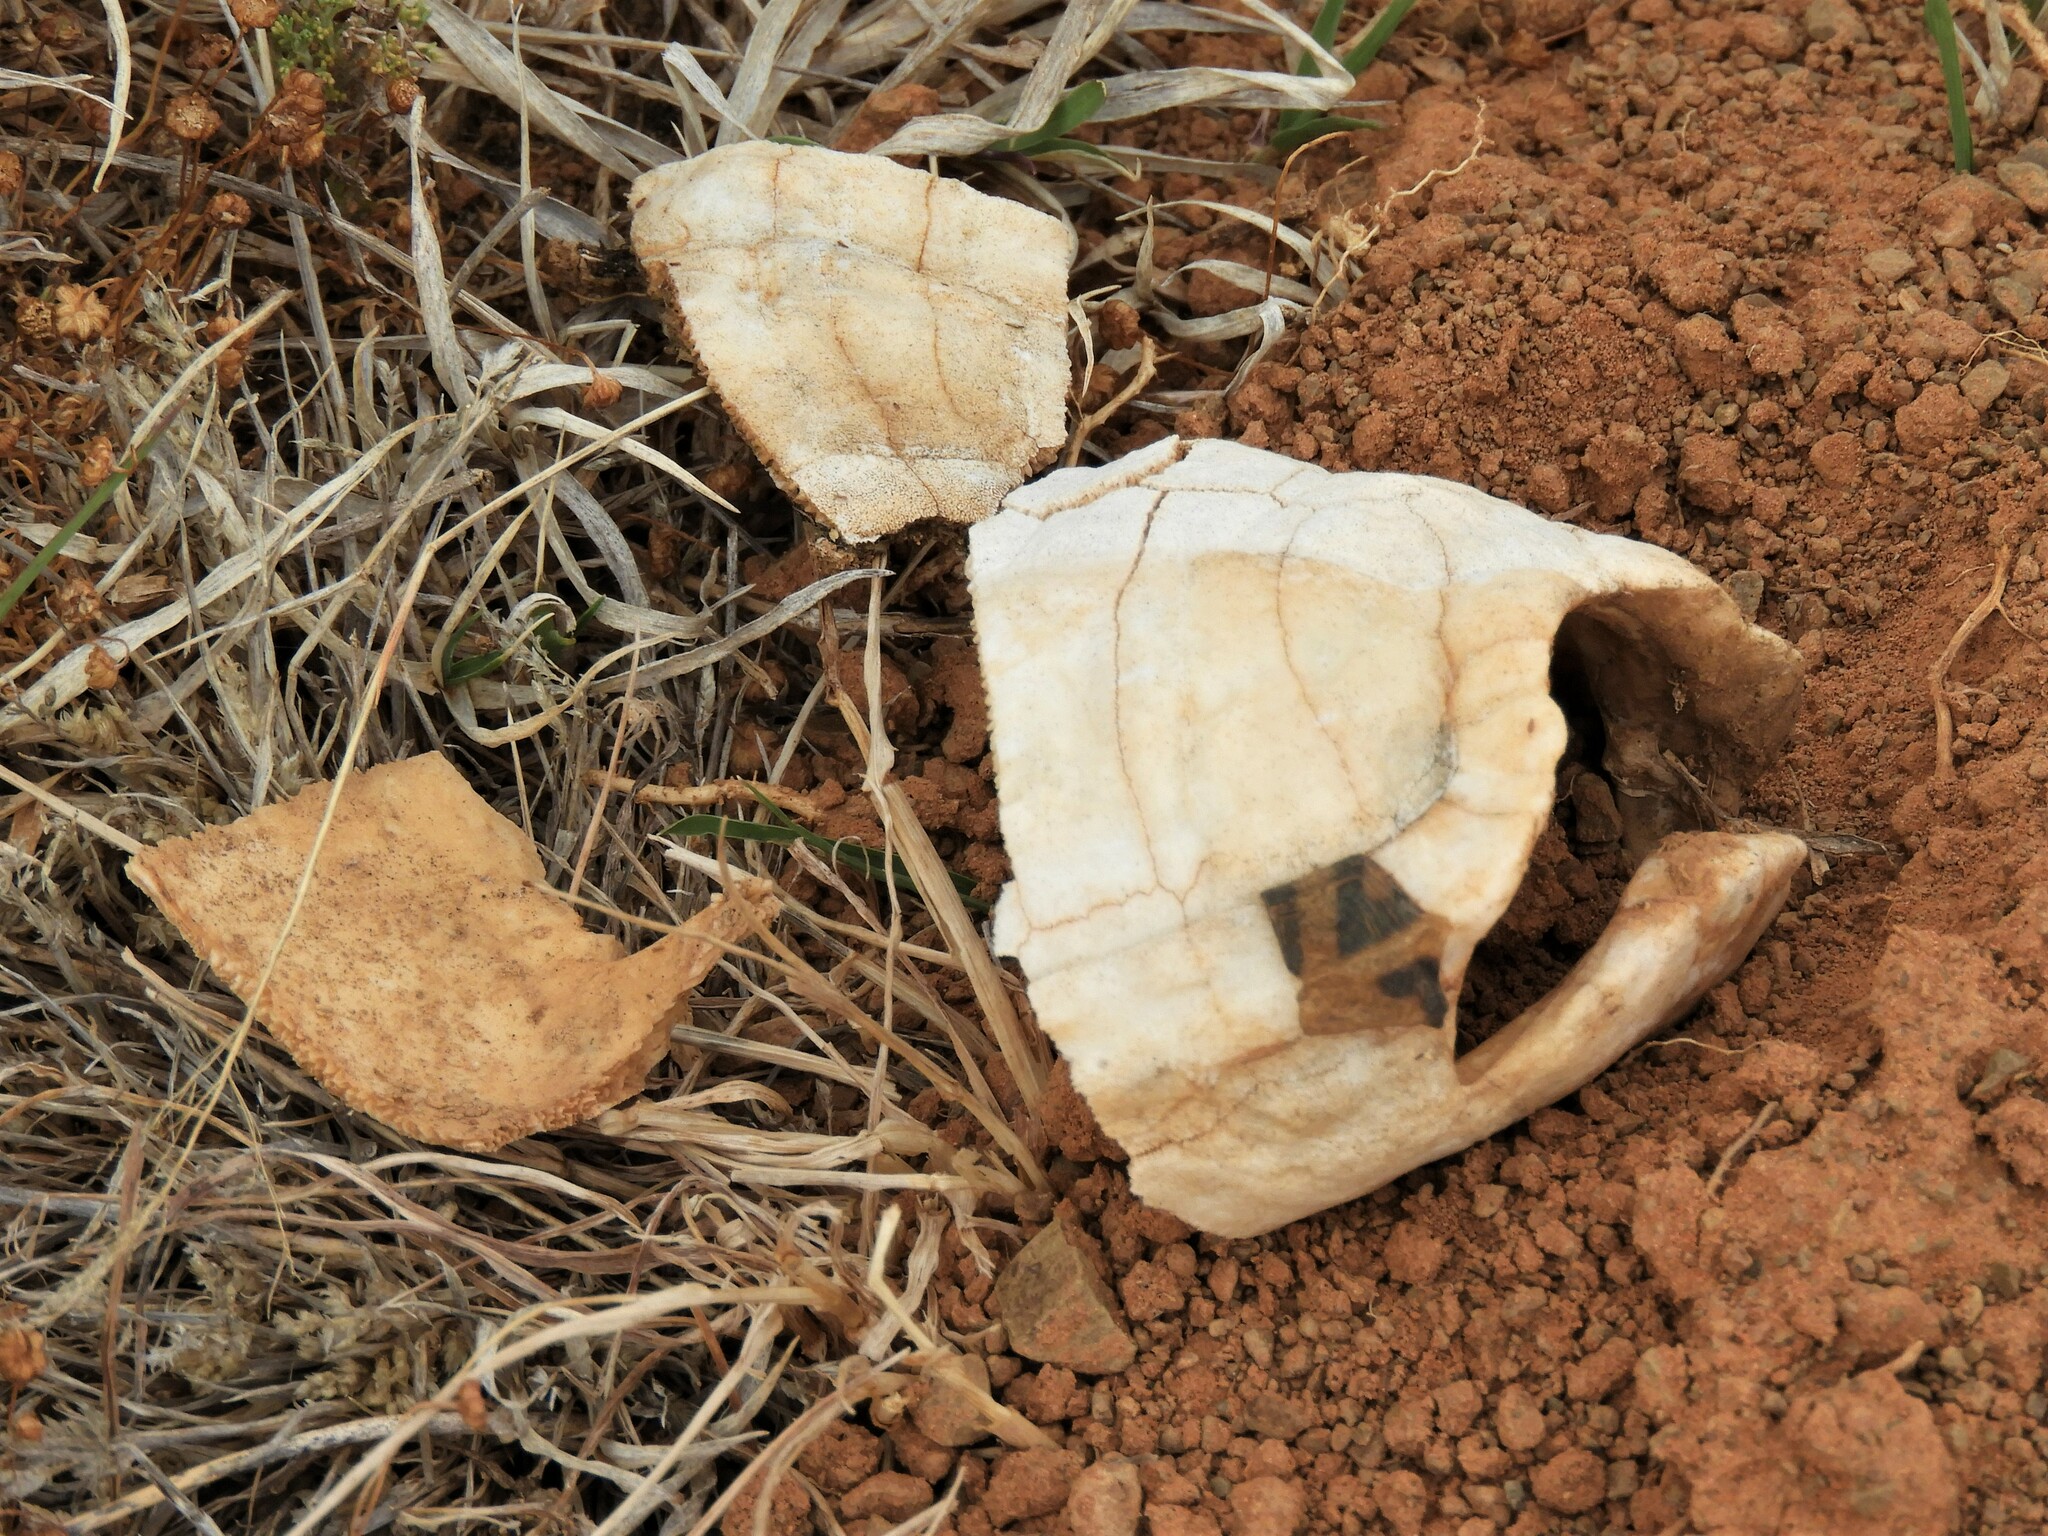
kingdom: Animalia
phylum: Chordata
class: Testudines
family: Testudinidae
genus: Psammobates
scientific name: Psammobates tentorius
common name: Tent tortoise
